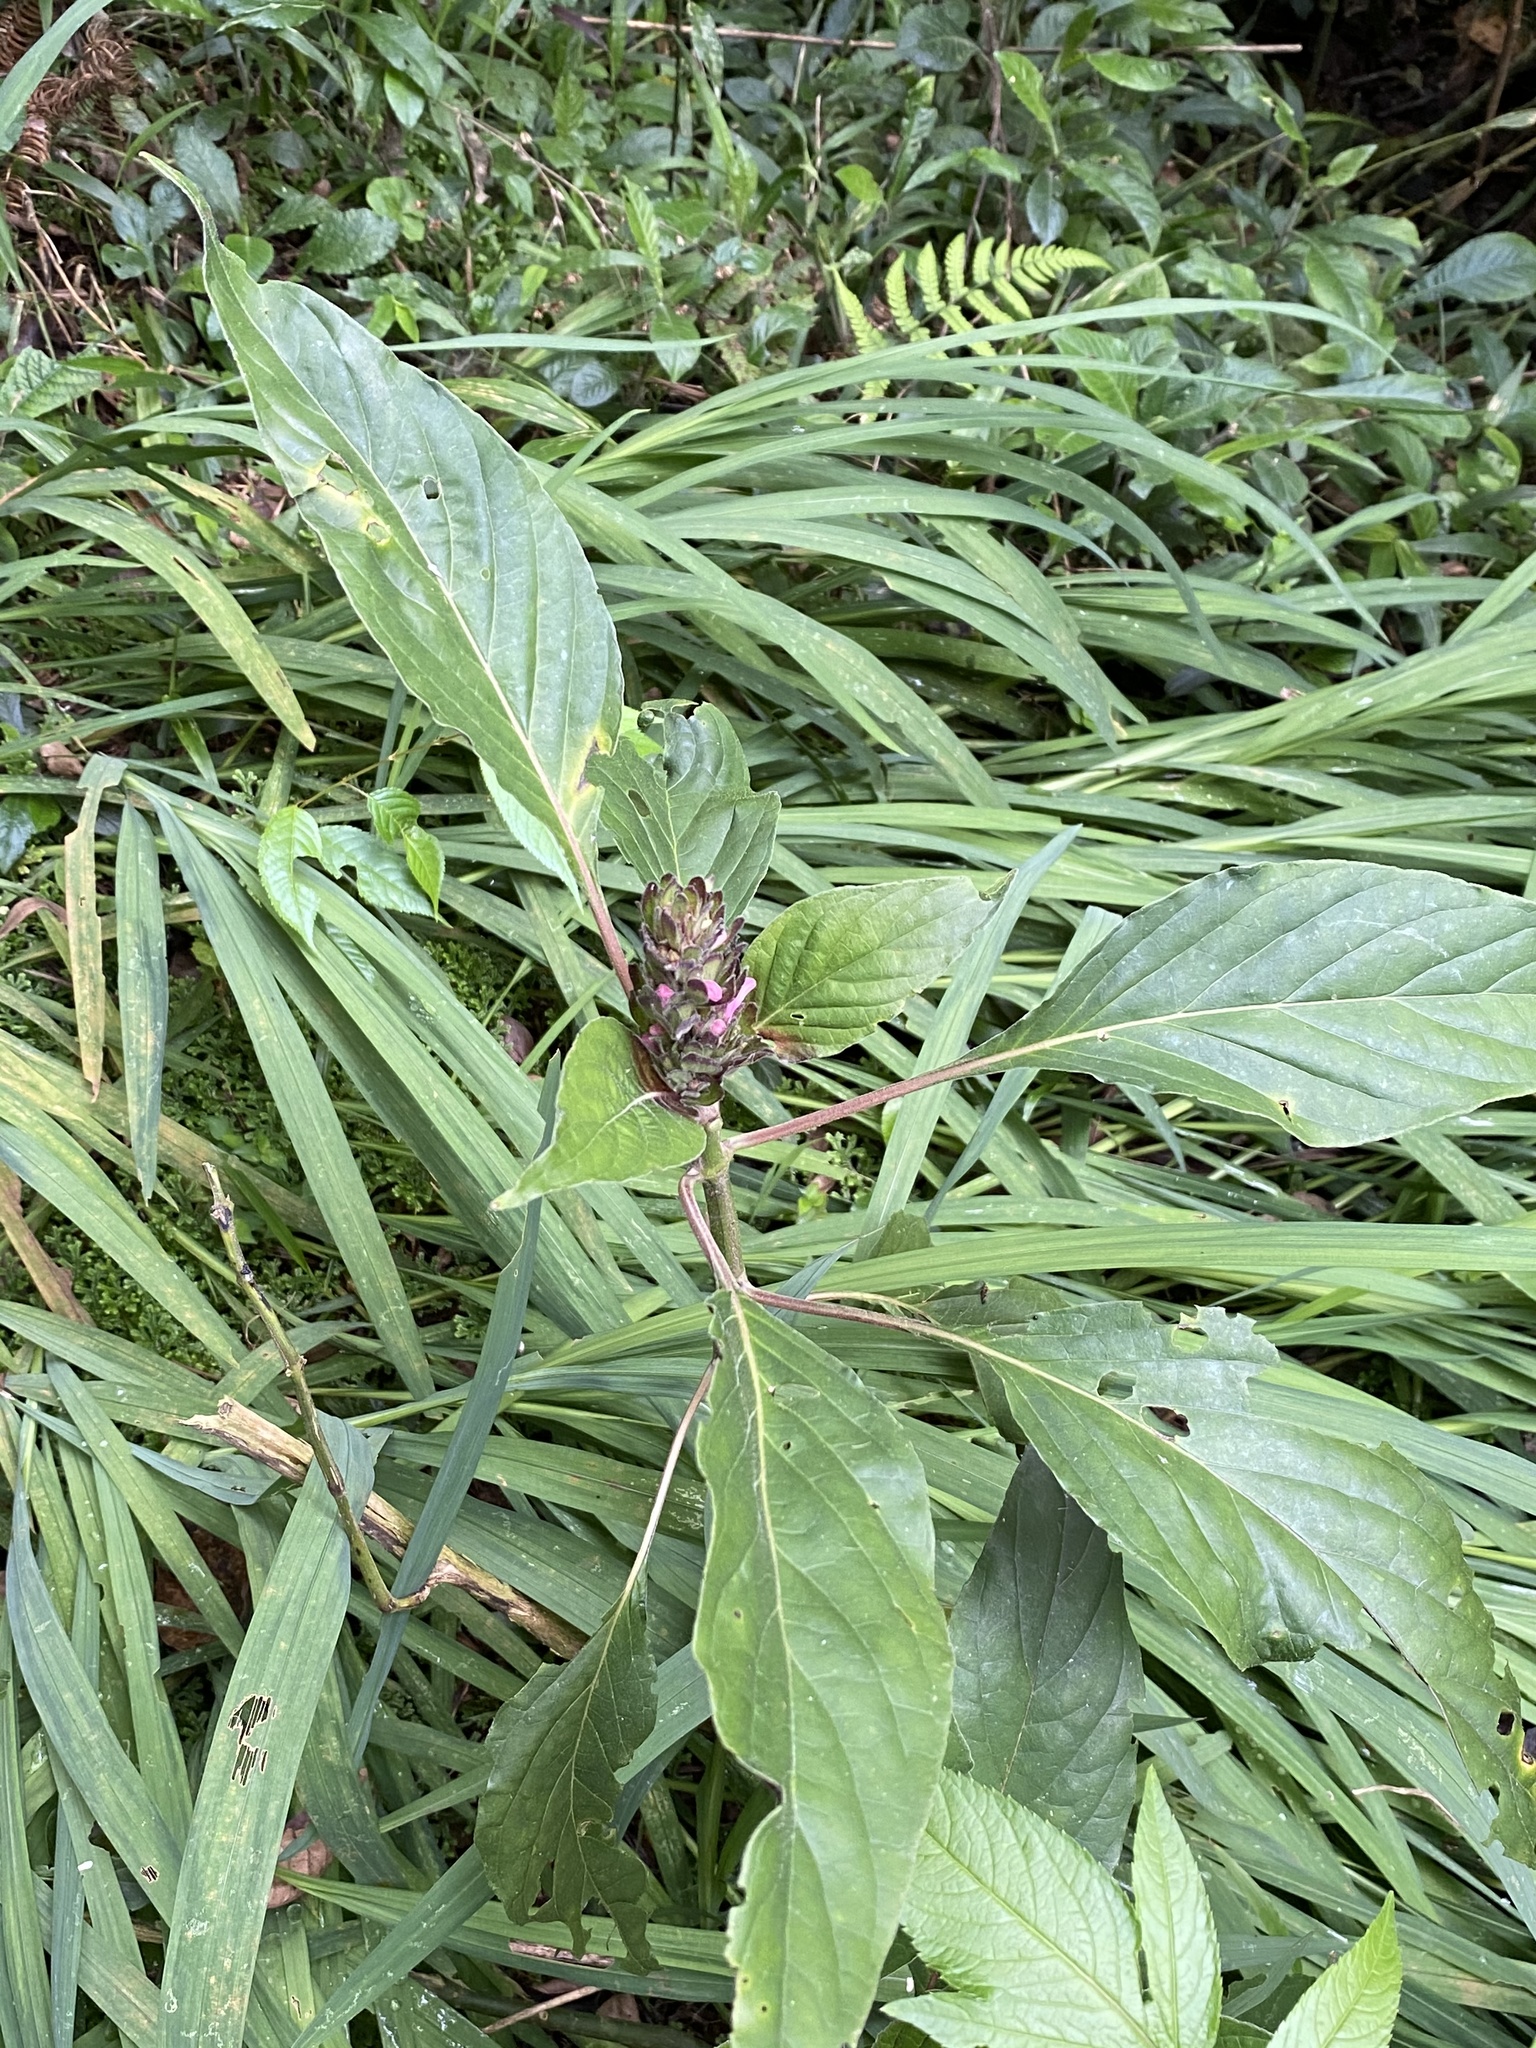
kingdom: Plantae
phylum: Tracheophyta
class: Magnoliopsida
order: Lamiales
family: Acanthaceae
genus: Justicia
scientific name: Justicia carnea
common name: Brazilian-plume
